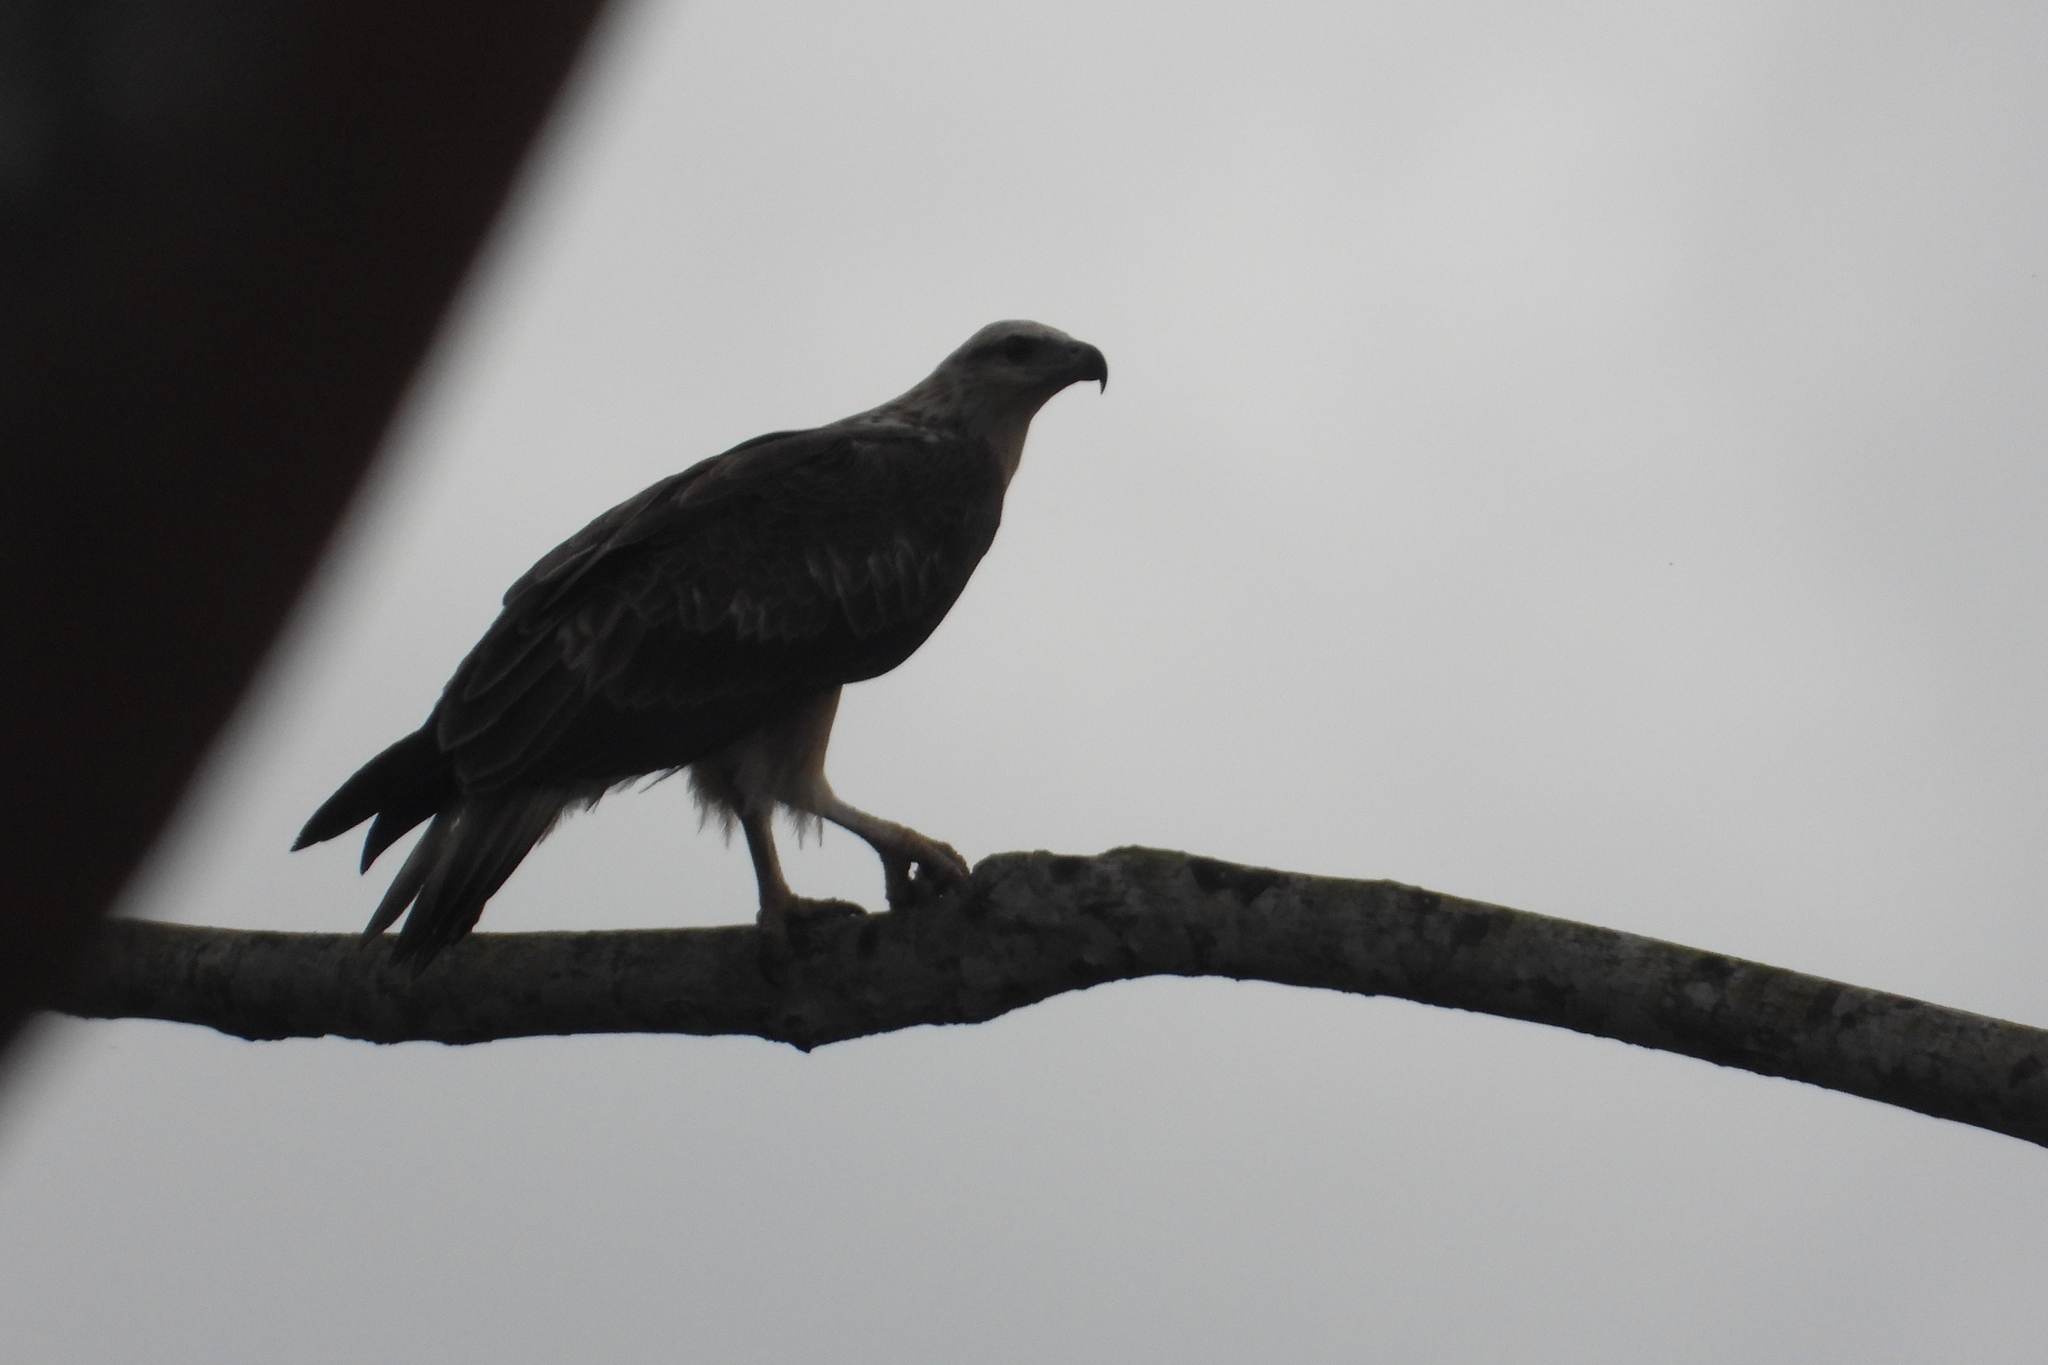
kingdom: Animalia
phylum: Chordata
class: Aves
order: Accipitriformes
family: Accipitridae
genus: Haliaeetus
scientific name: Haliaeetus leucogaster
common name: White-bellied sea eagle
